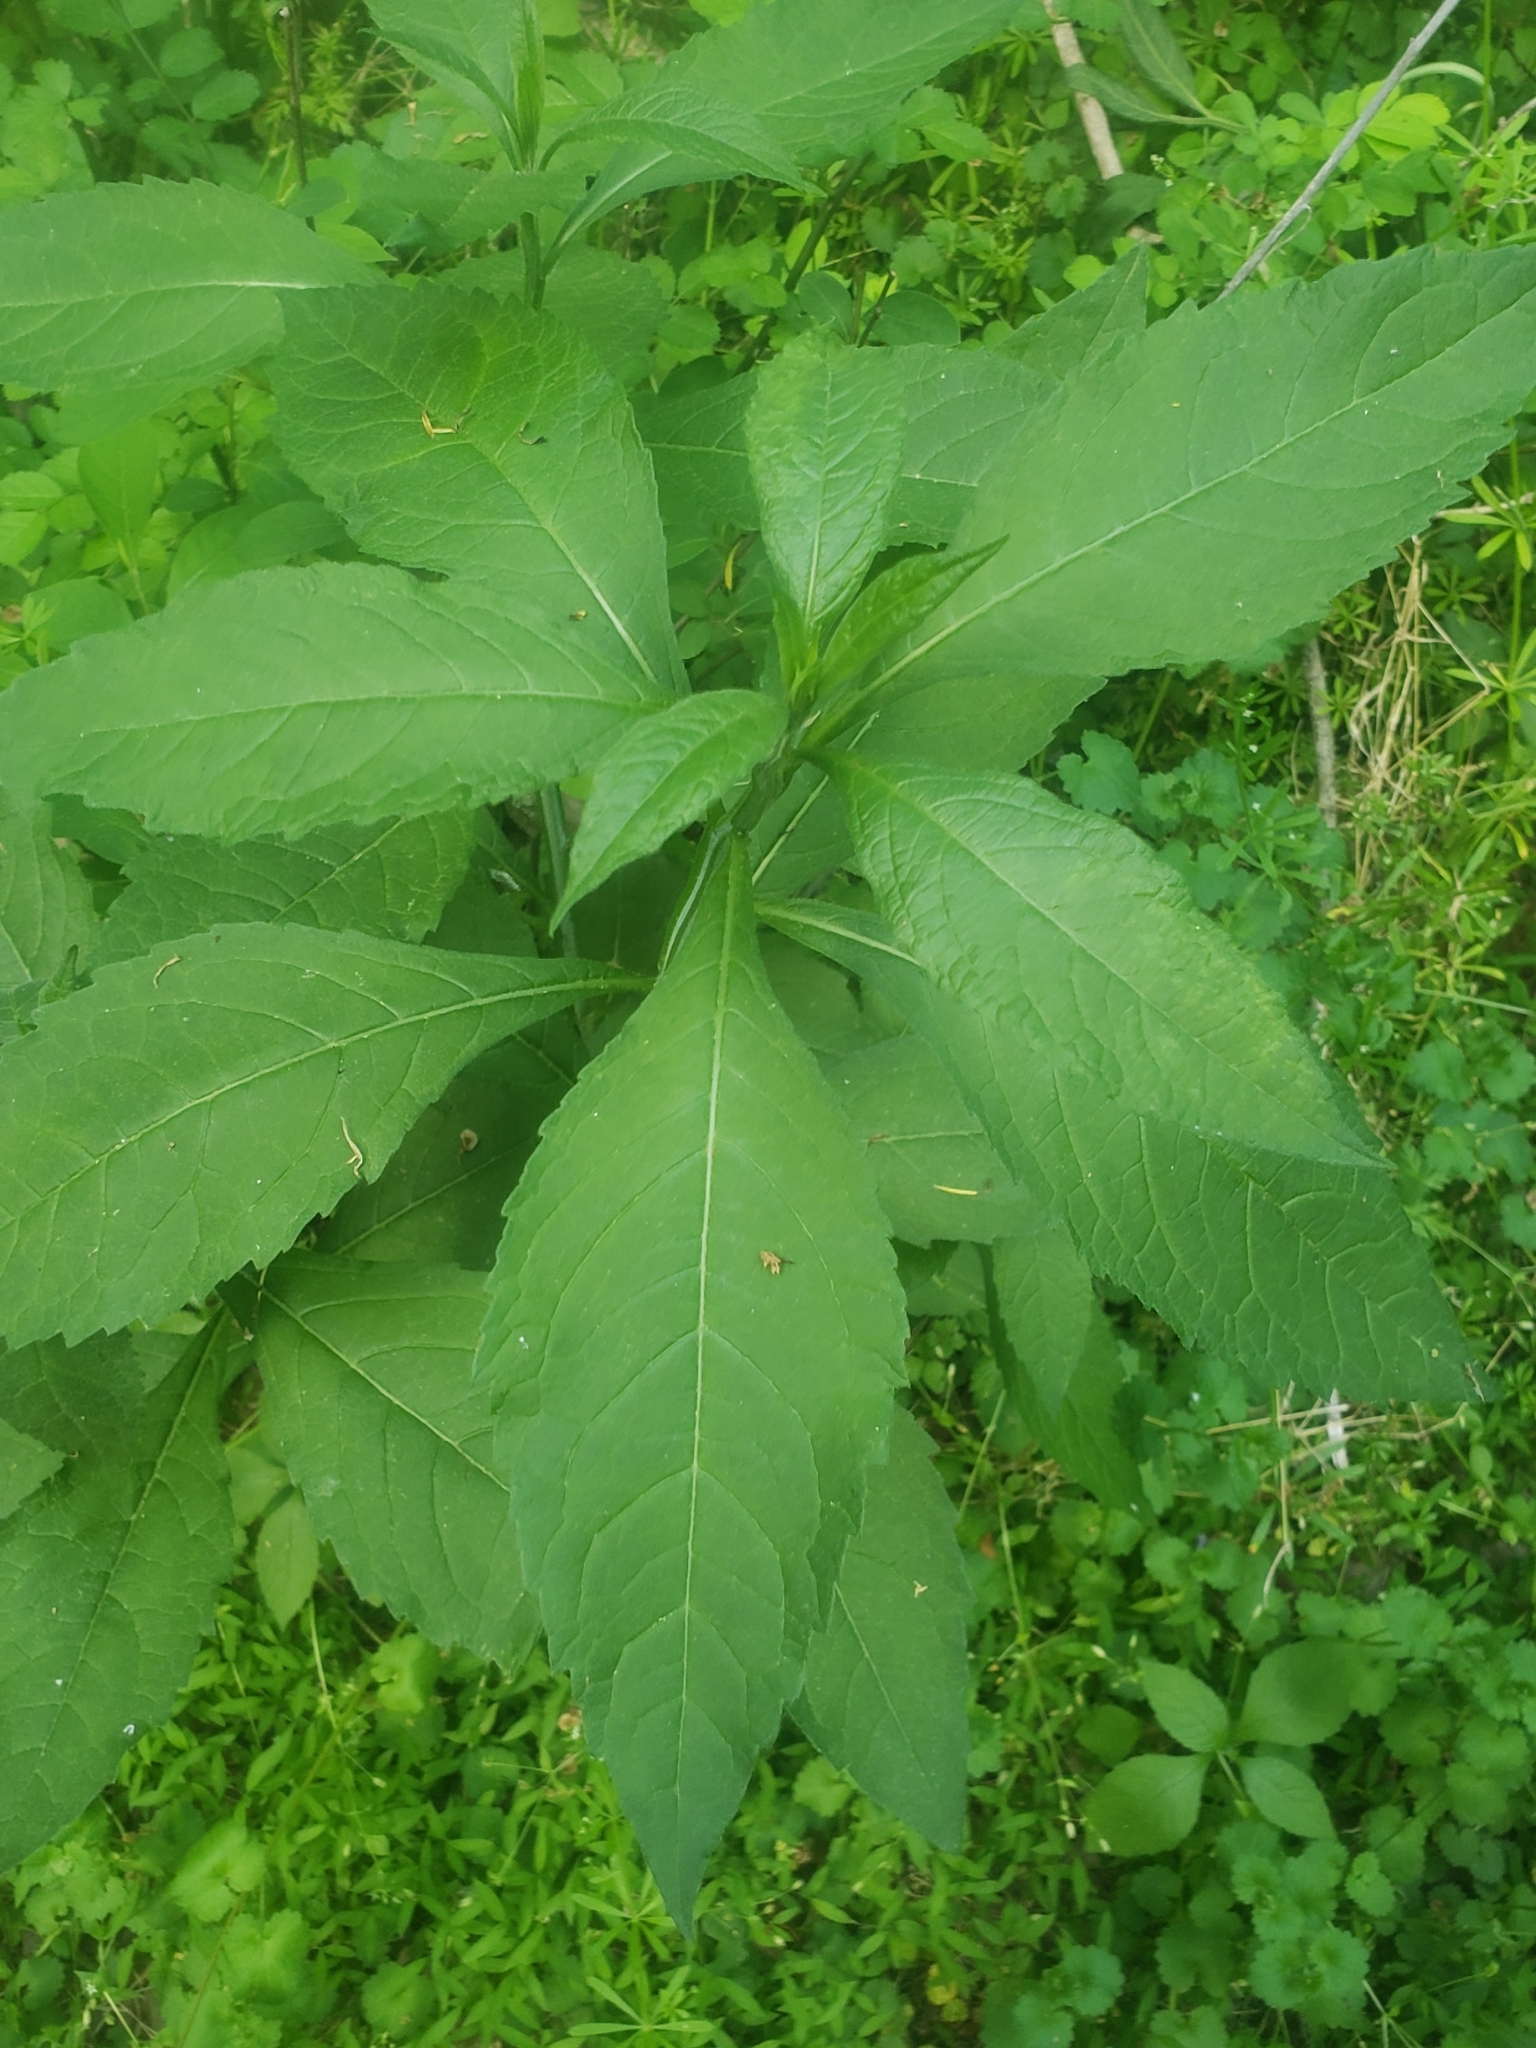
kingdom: Plantae
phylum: Tracheophyta
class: Magnoliopsida
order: Asterales
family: Asteraceae
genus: Verbesina
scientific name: Verbesina alternifolia
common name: Wingstem
